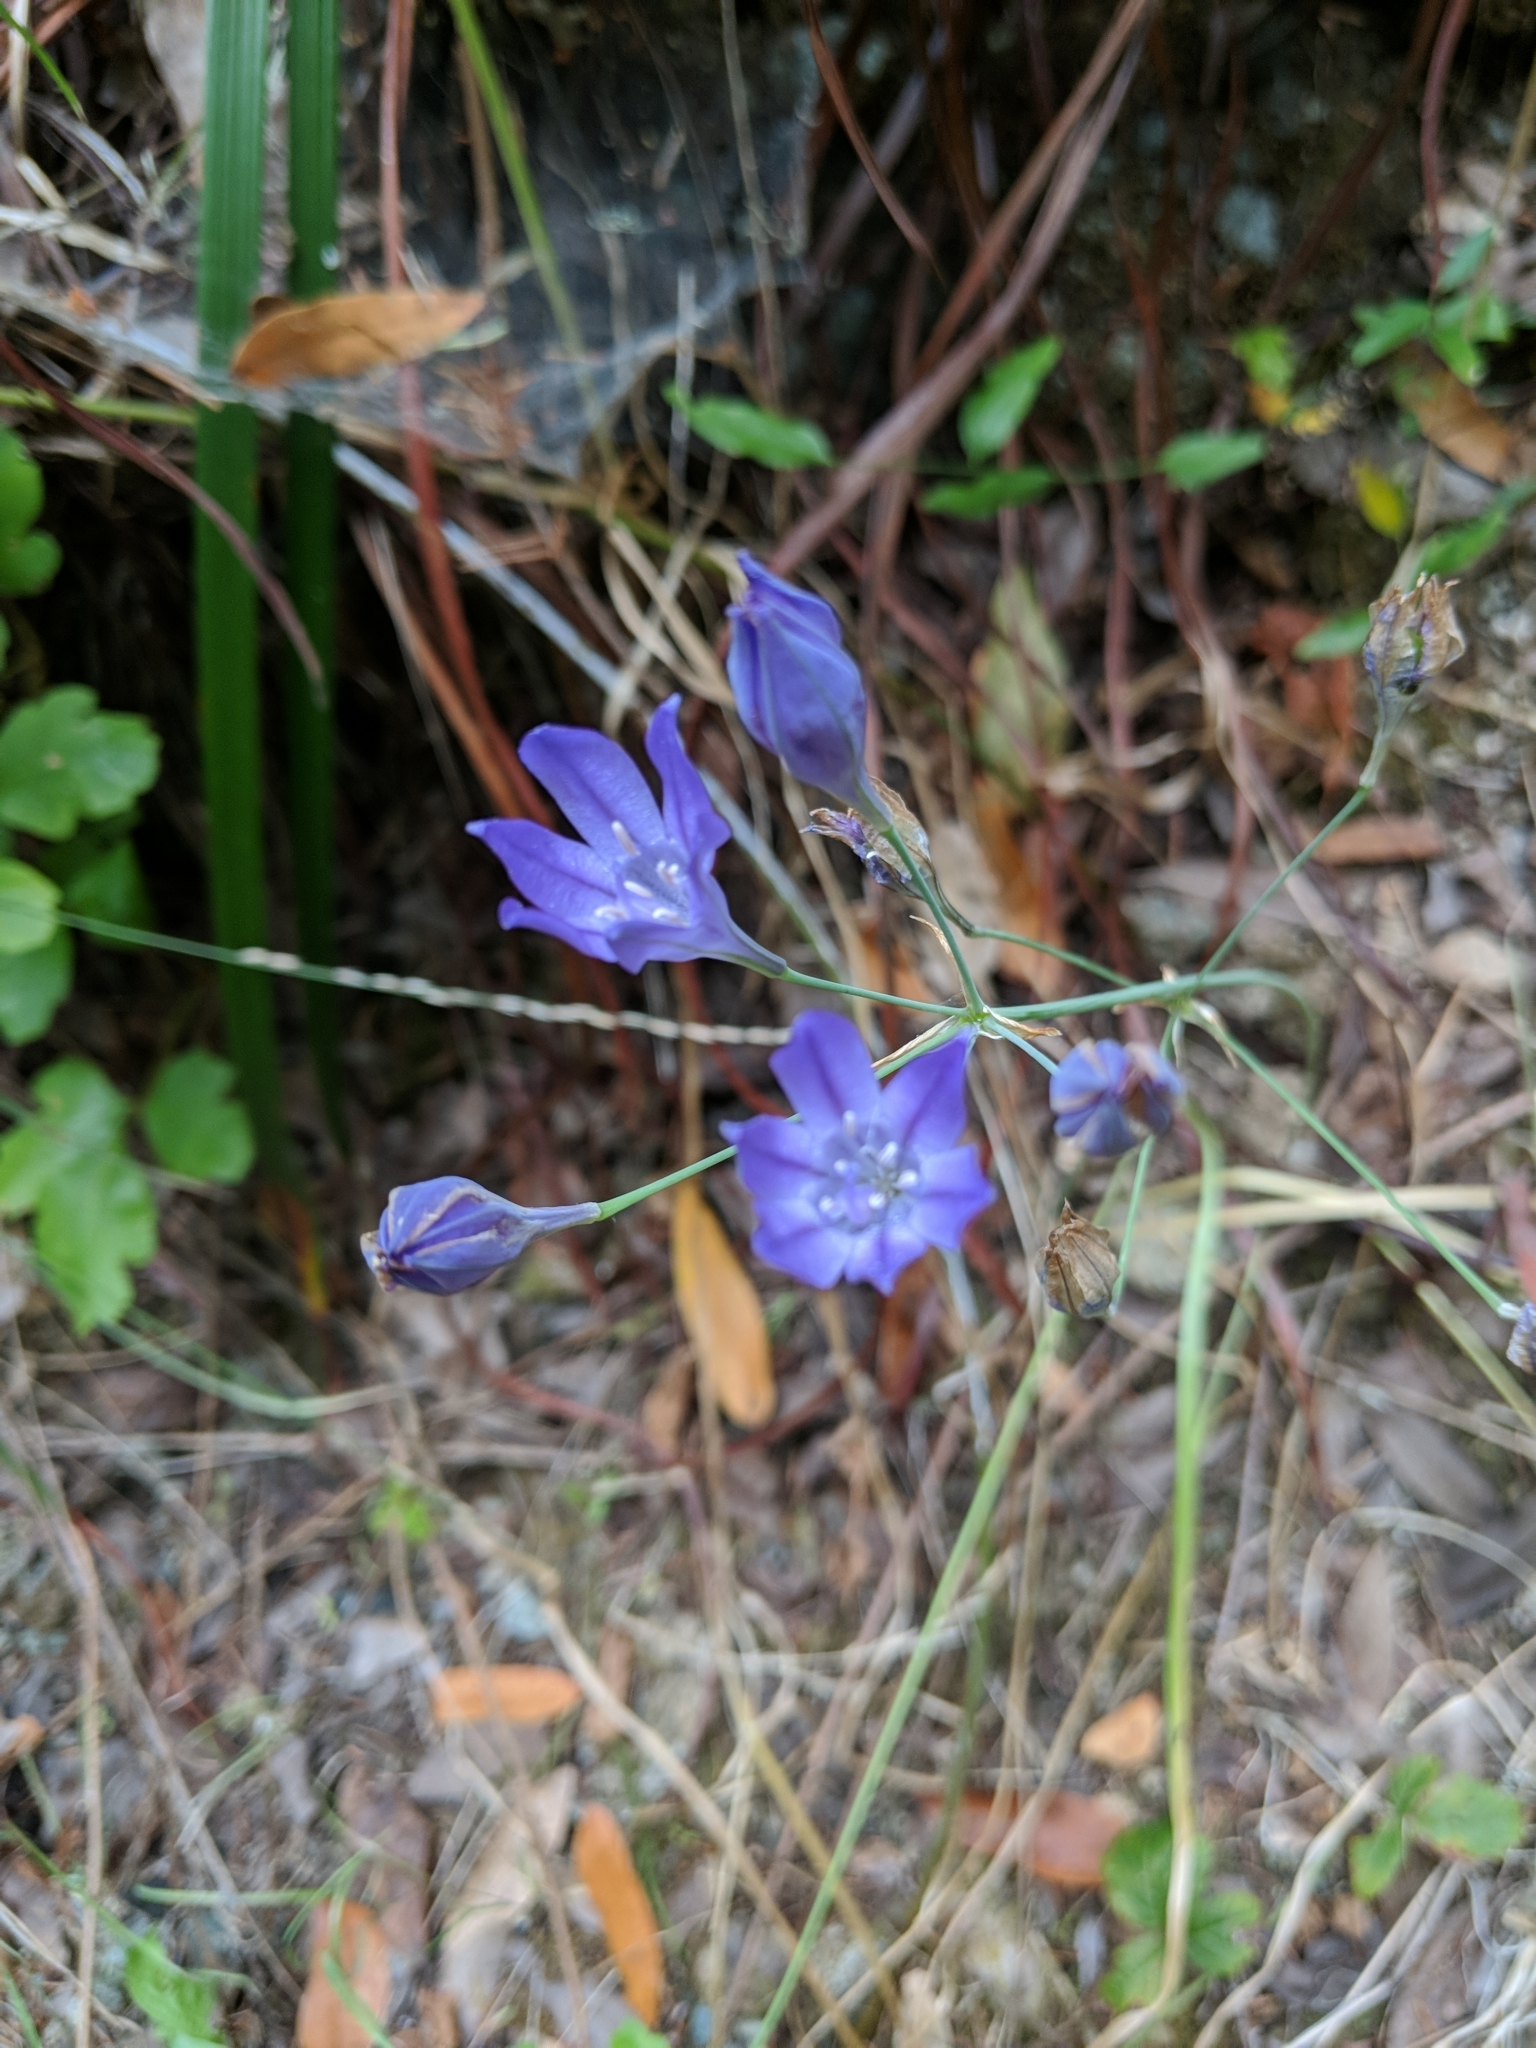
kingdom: Plantae
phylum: Tracheophyta
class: Liliopsida
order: Asparagales
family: Asparagaceae
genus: Triteleia
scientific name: Triteleia laxa
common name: Triplet-lily
